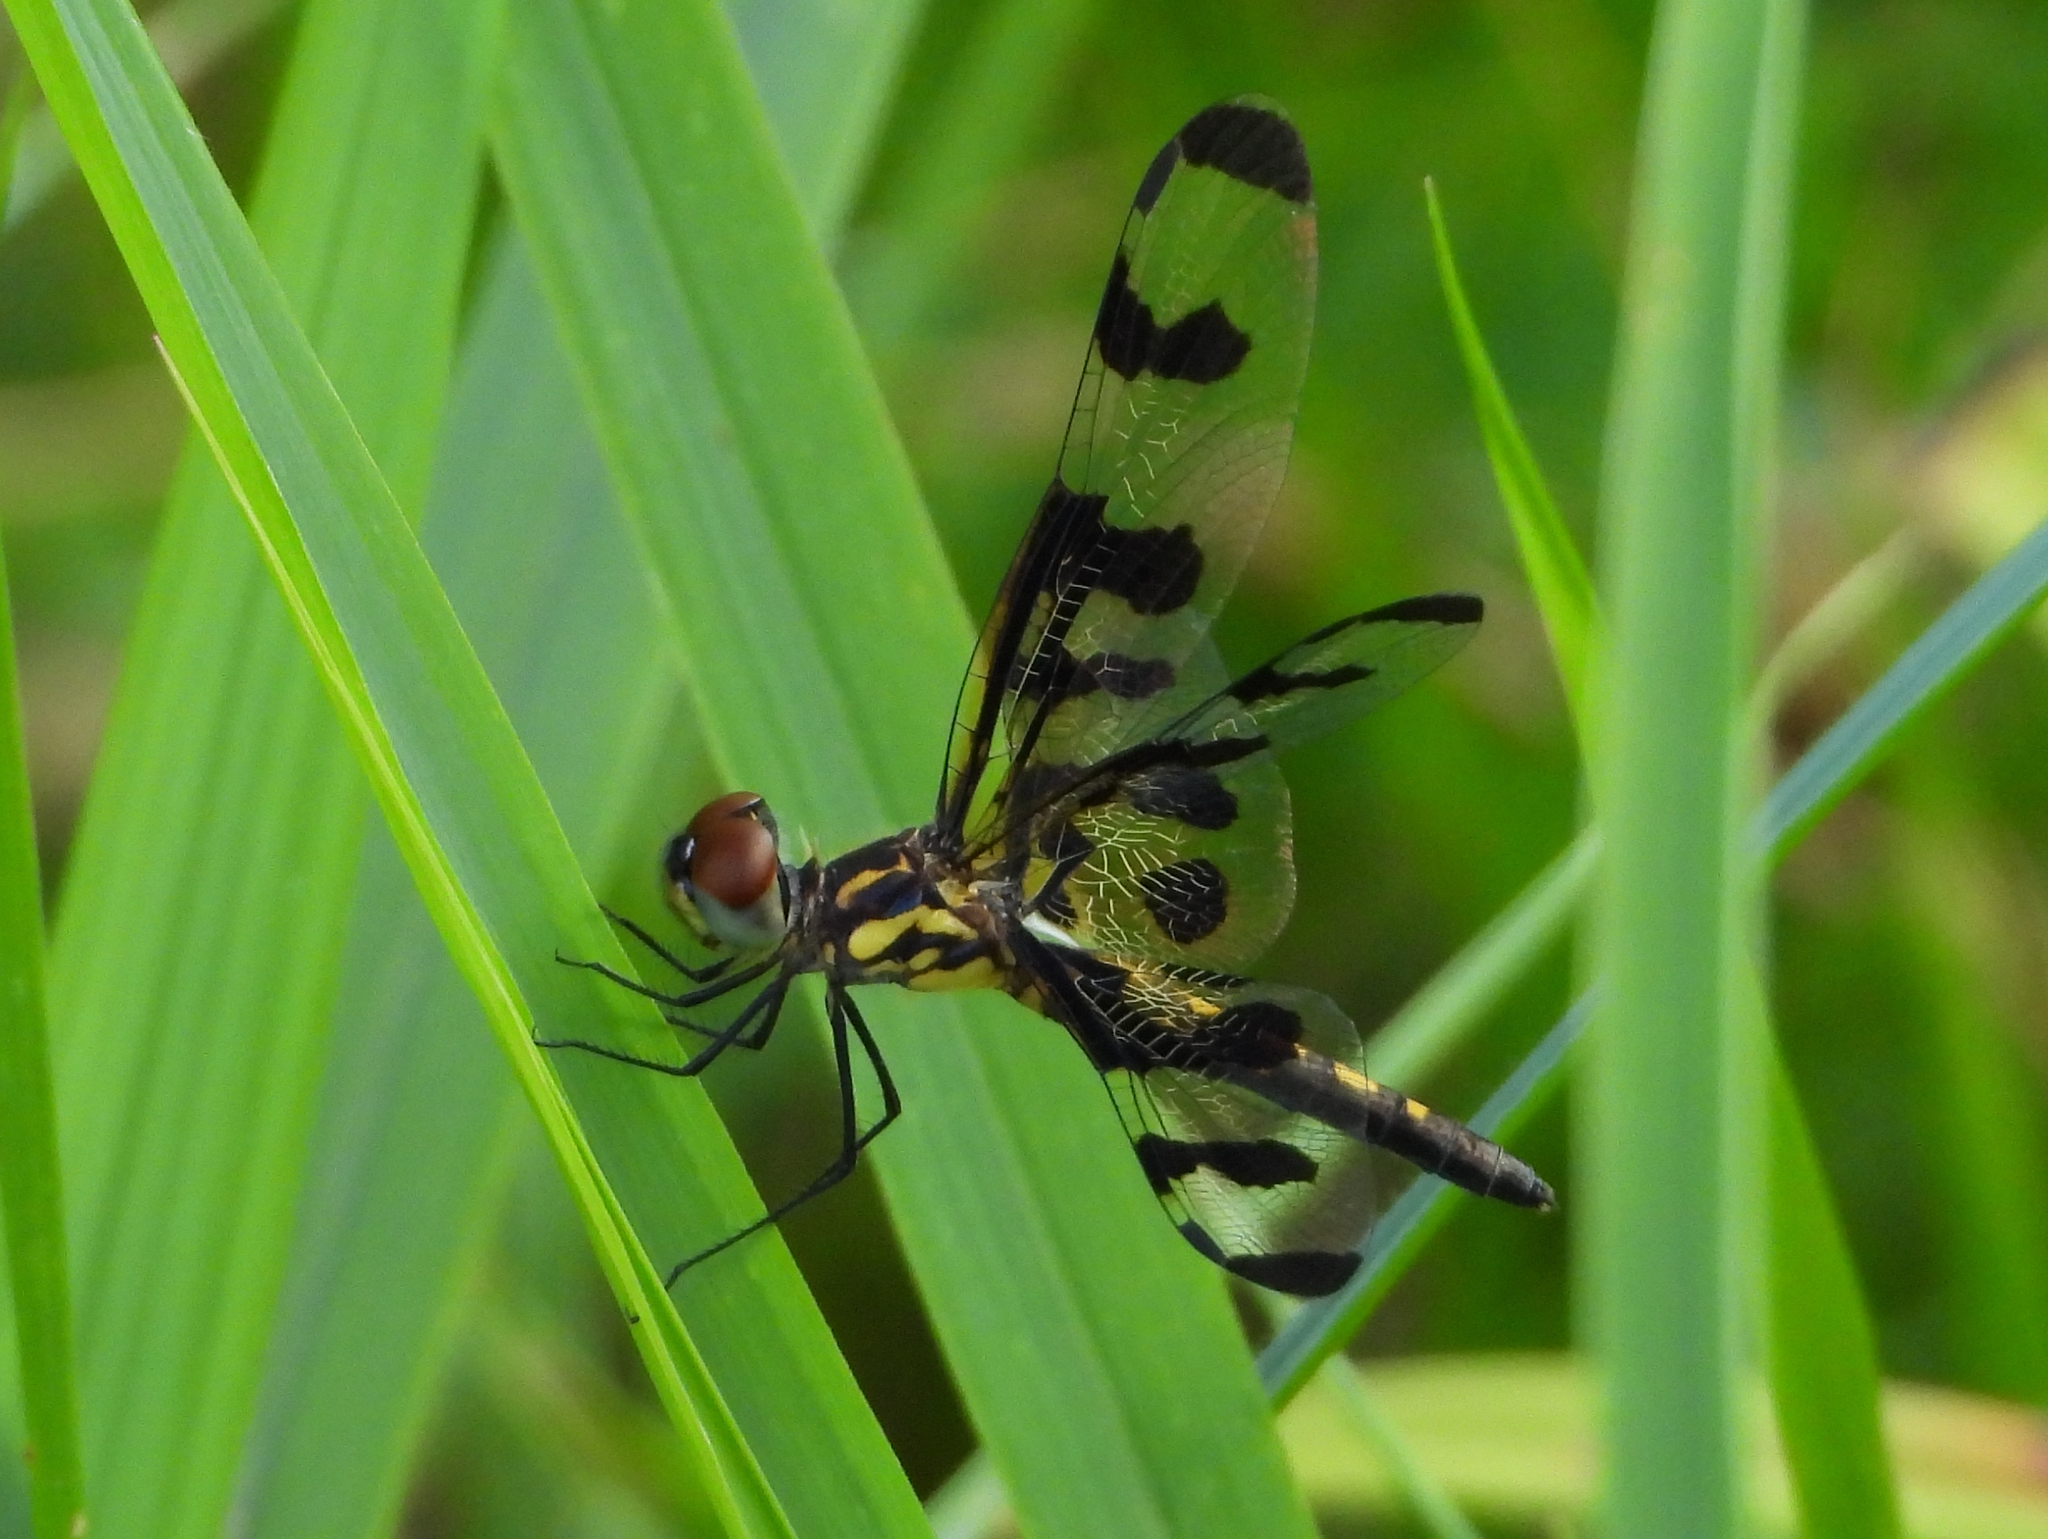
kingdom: Animalia
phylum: Arthropoda
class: Insecta
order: Odonata
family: Libellulidae
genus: Celithemis
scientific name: Celithemis fasciata
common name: Banded pennant
